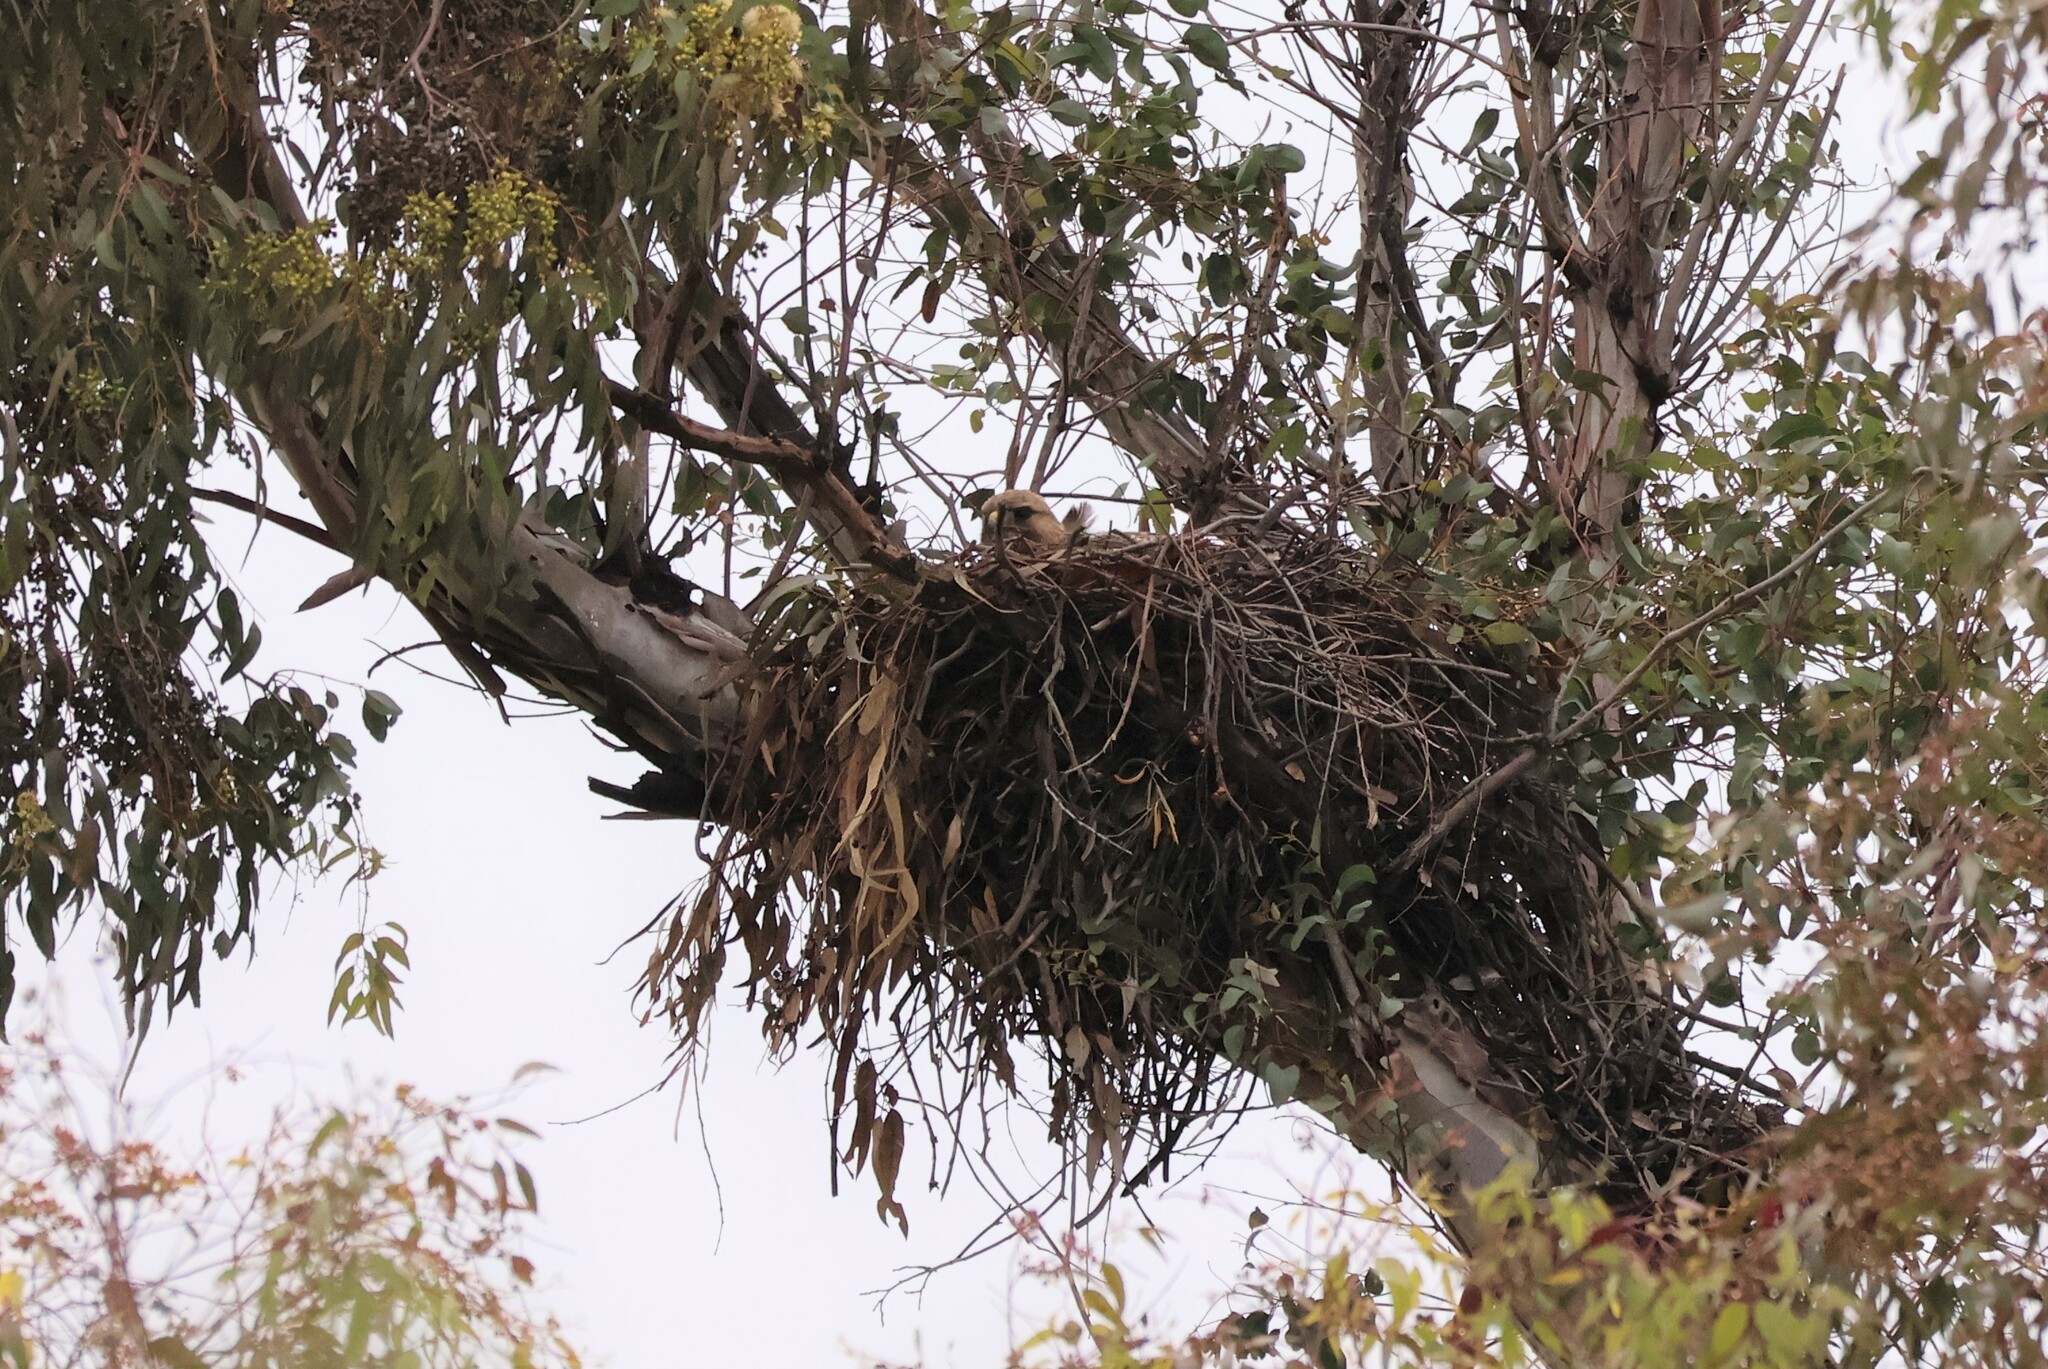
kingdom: Animalia
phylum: Chordata
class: Aves
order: Accipitriformes
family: Accipitridae
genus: Buteo
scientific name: Buteo jamaicensis
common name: Red-tailed hawk
